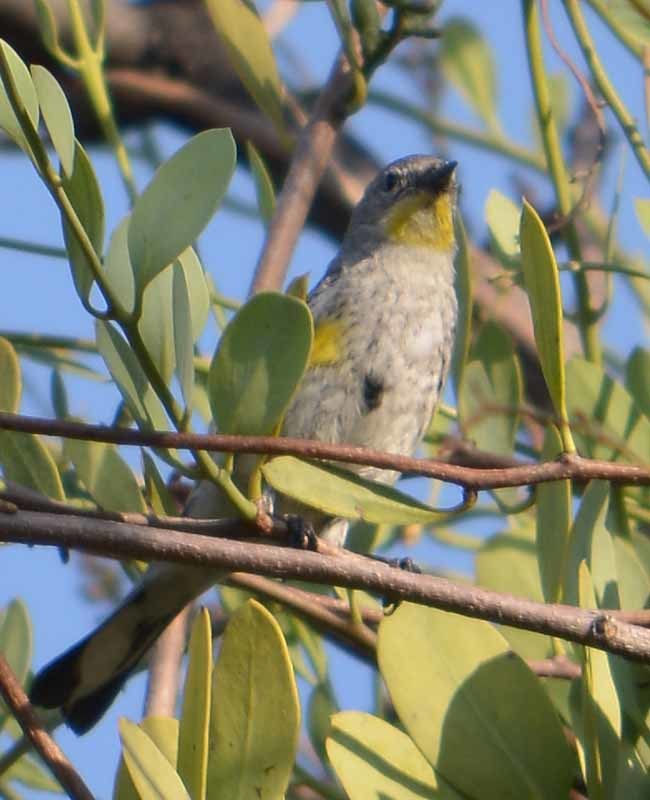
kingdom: Animalia
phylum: Chordata
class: Aves
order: Passeriformes
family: Parulidae
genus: Setophaga
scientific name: Setophaga coronata
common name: Myrtle warbler
